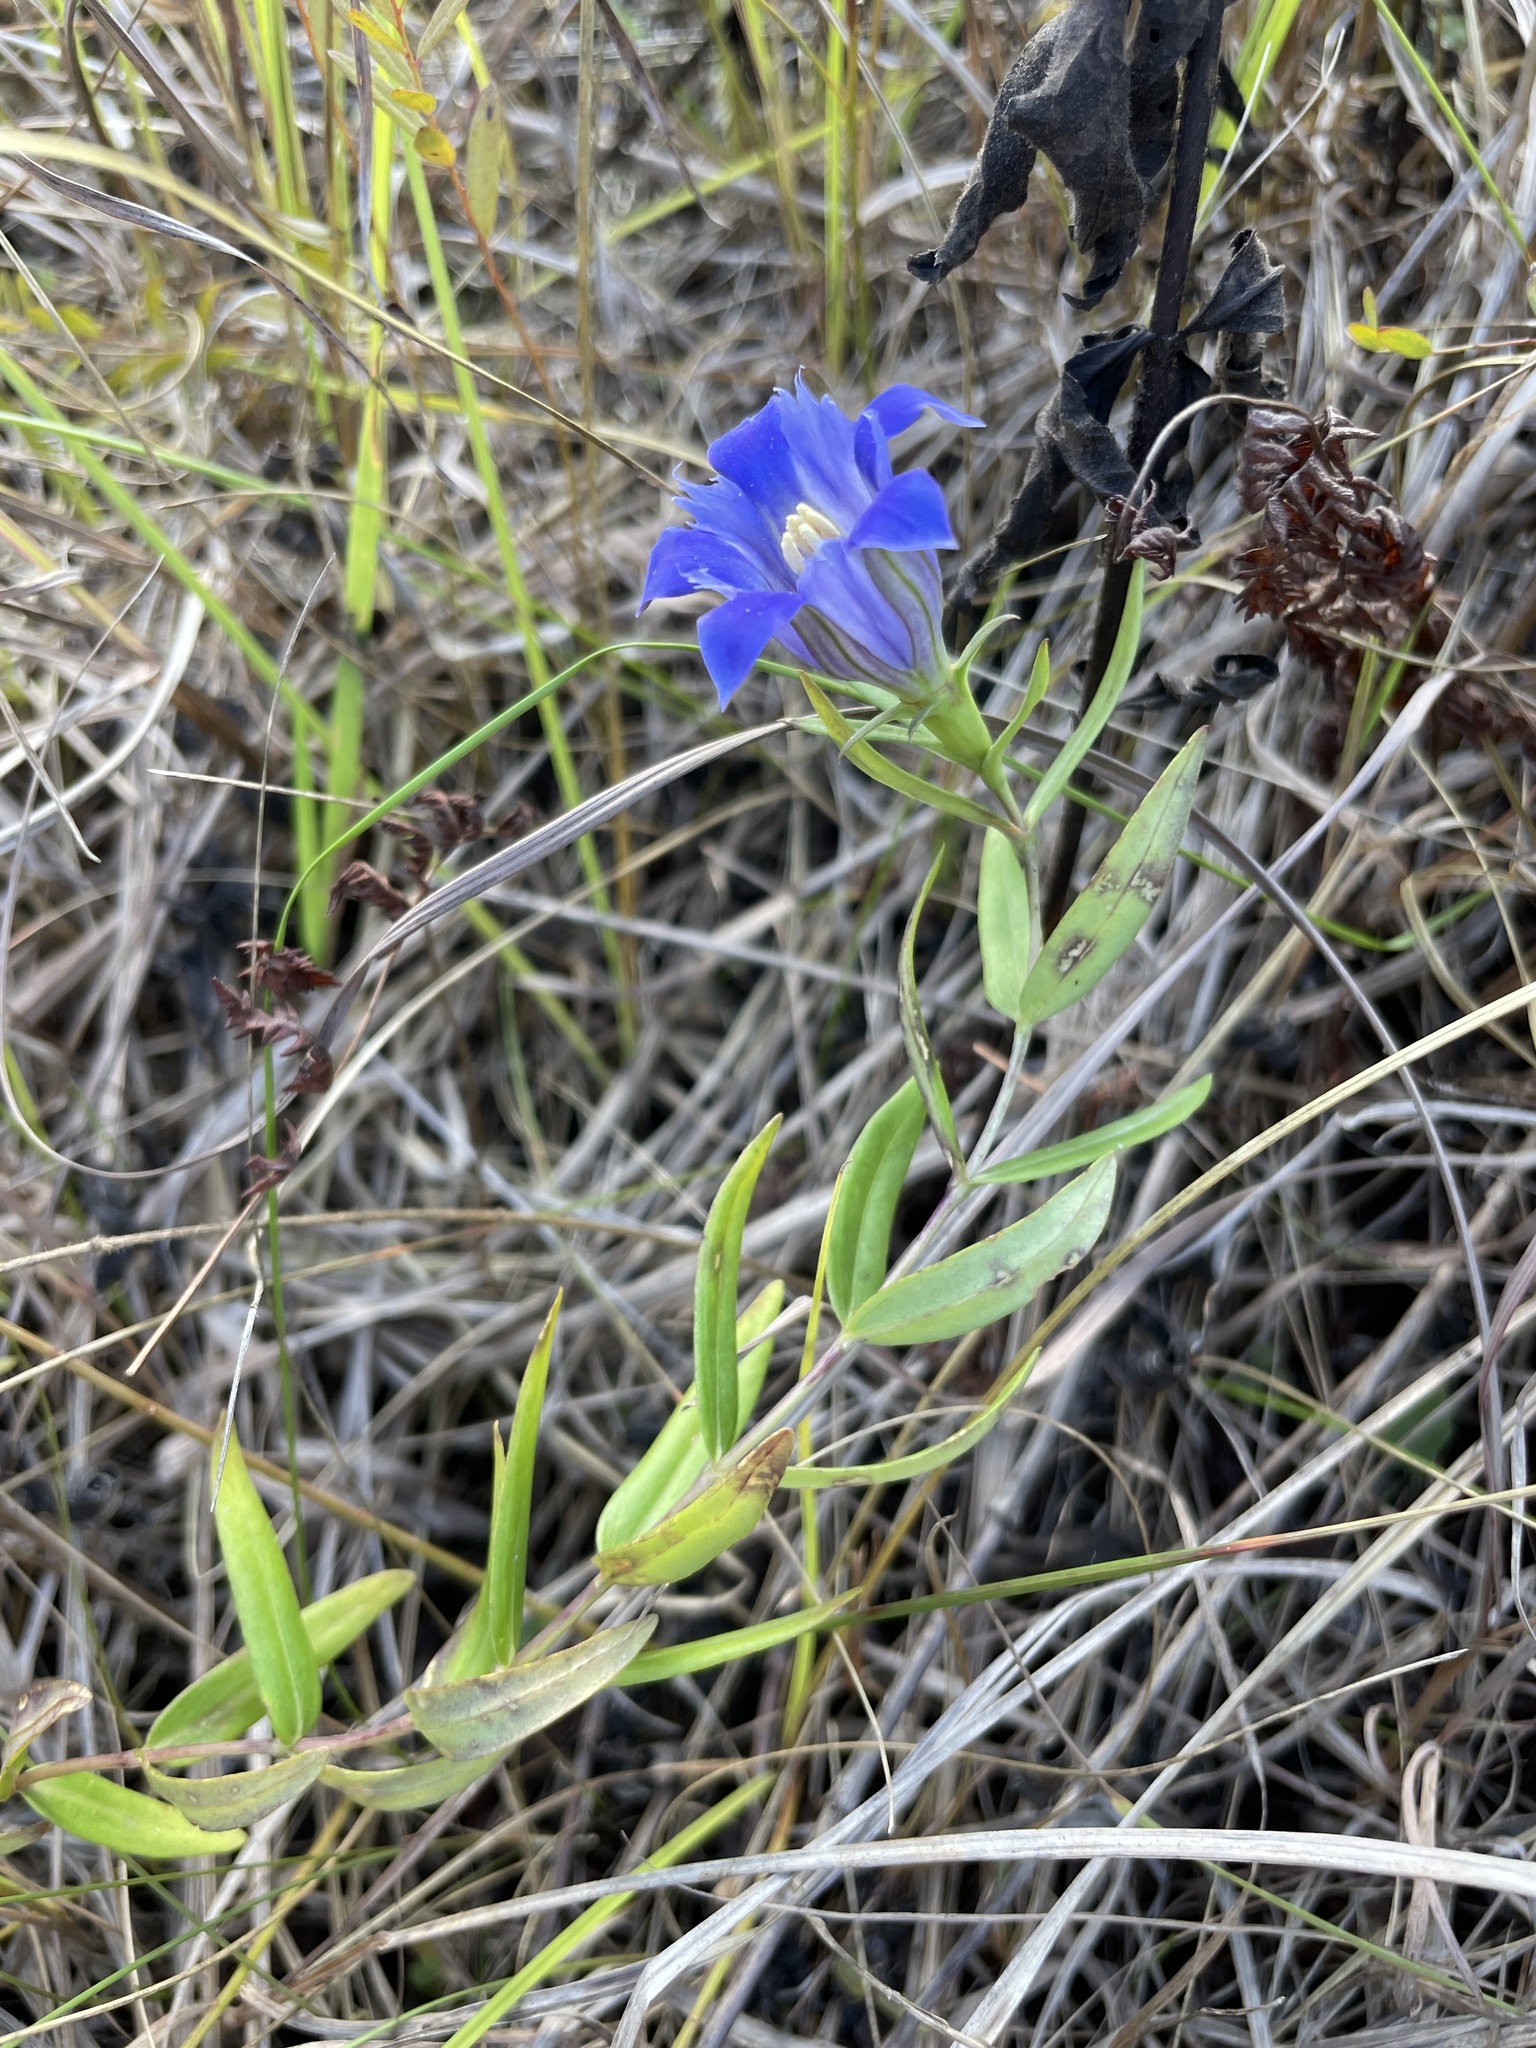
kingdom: Plantae
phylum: Tracheophyta
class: Magnoliopsida
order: Gentianales
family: Gentianaceae
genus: Gentiana
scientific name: Gentiana puberulenta
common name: Downy gentian
